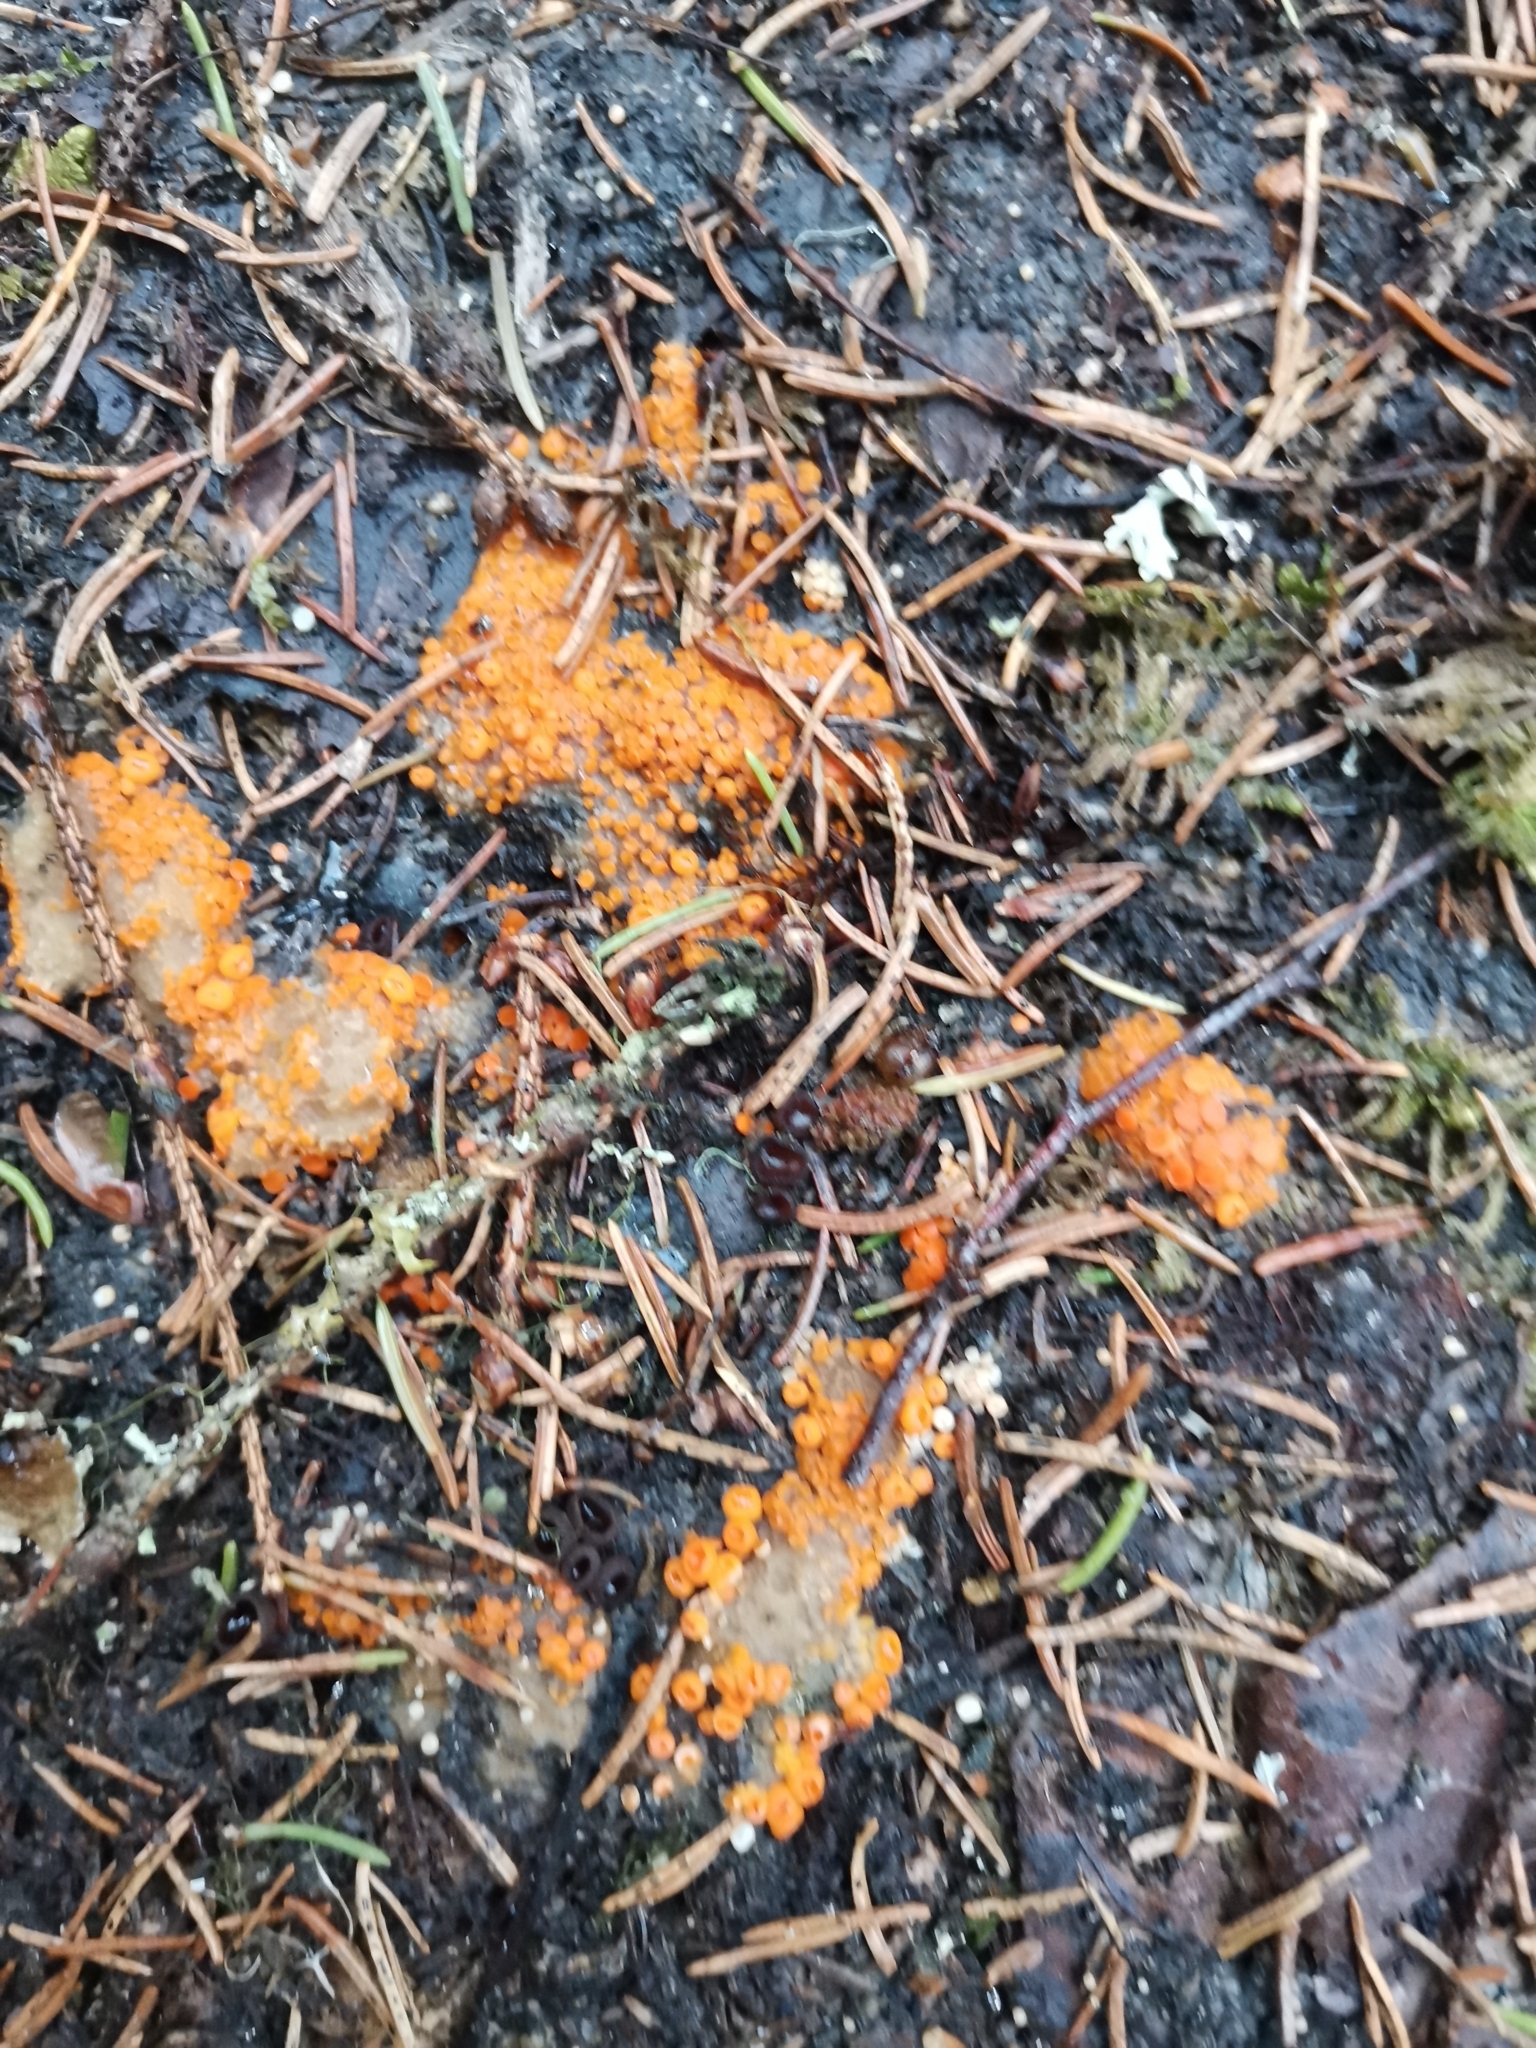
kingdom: Fungi
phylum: Ascomycota
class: Pezizomycetes
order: Pezizales
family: Pyronemataceae
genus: Byssonectria
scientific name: Byssonectria terrestris
